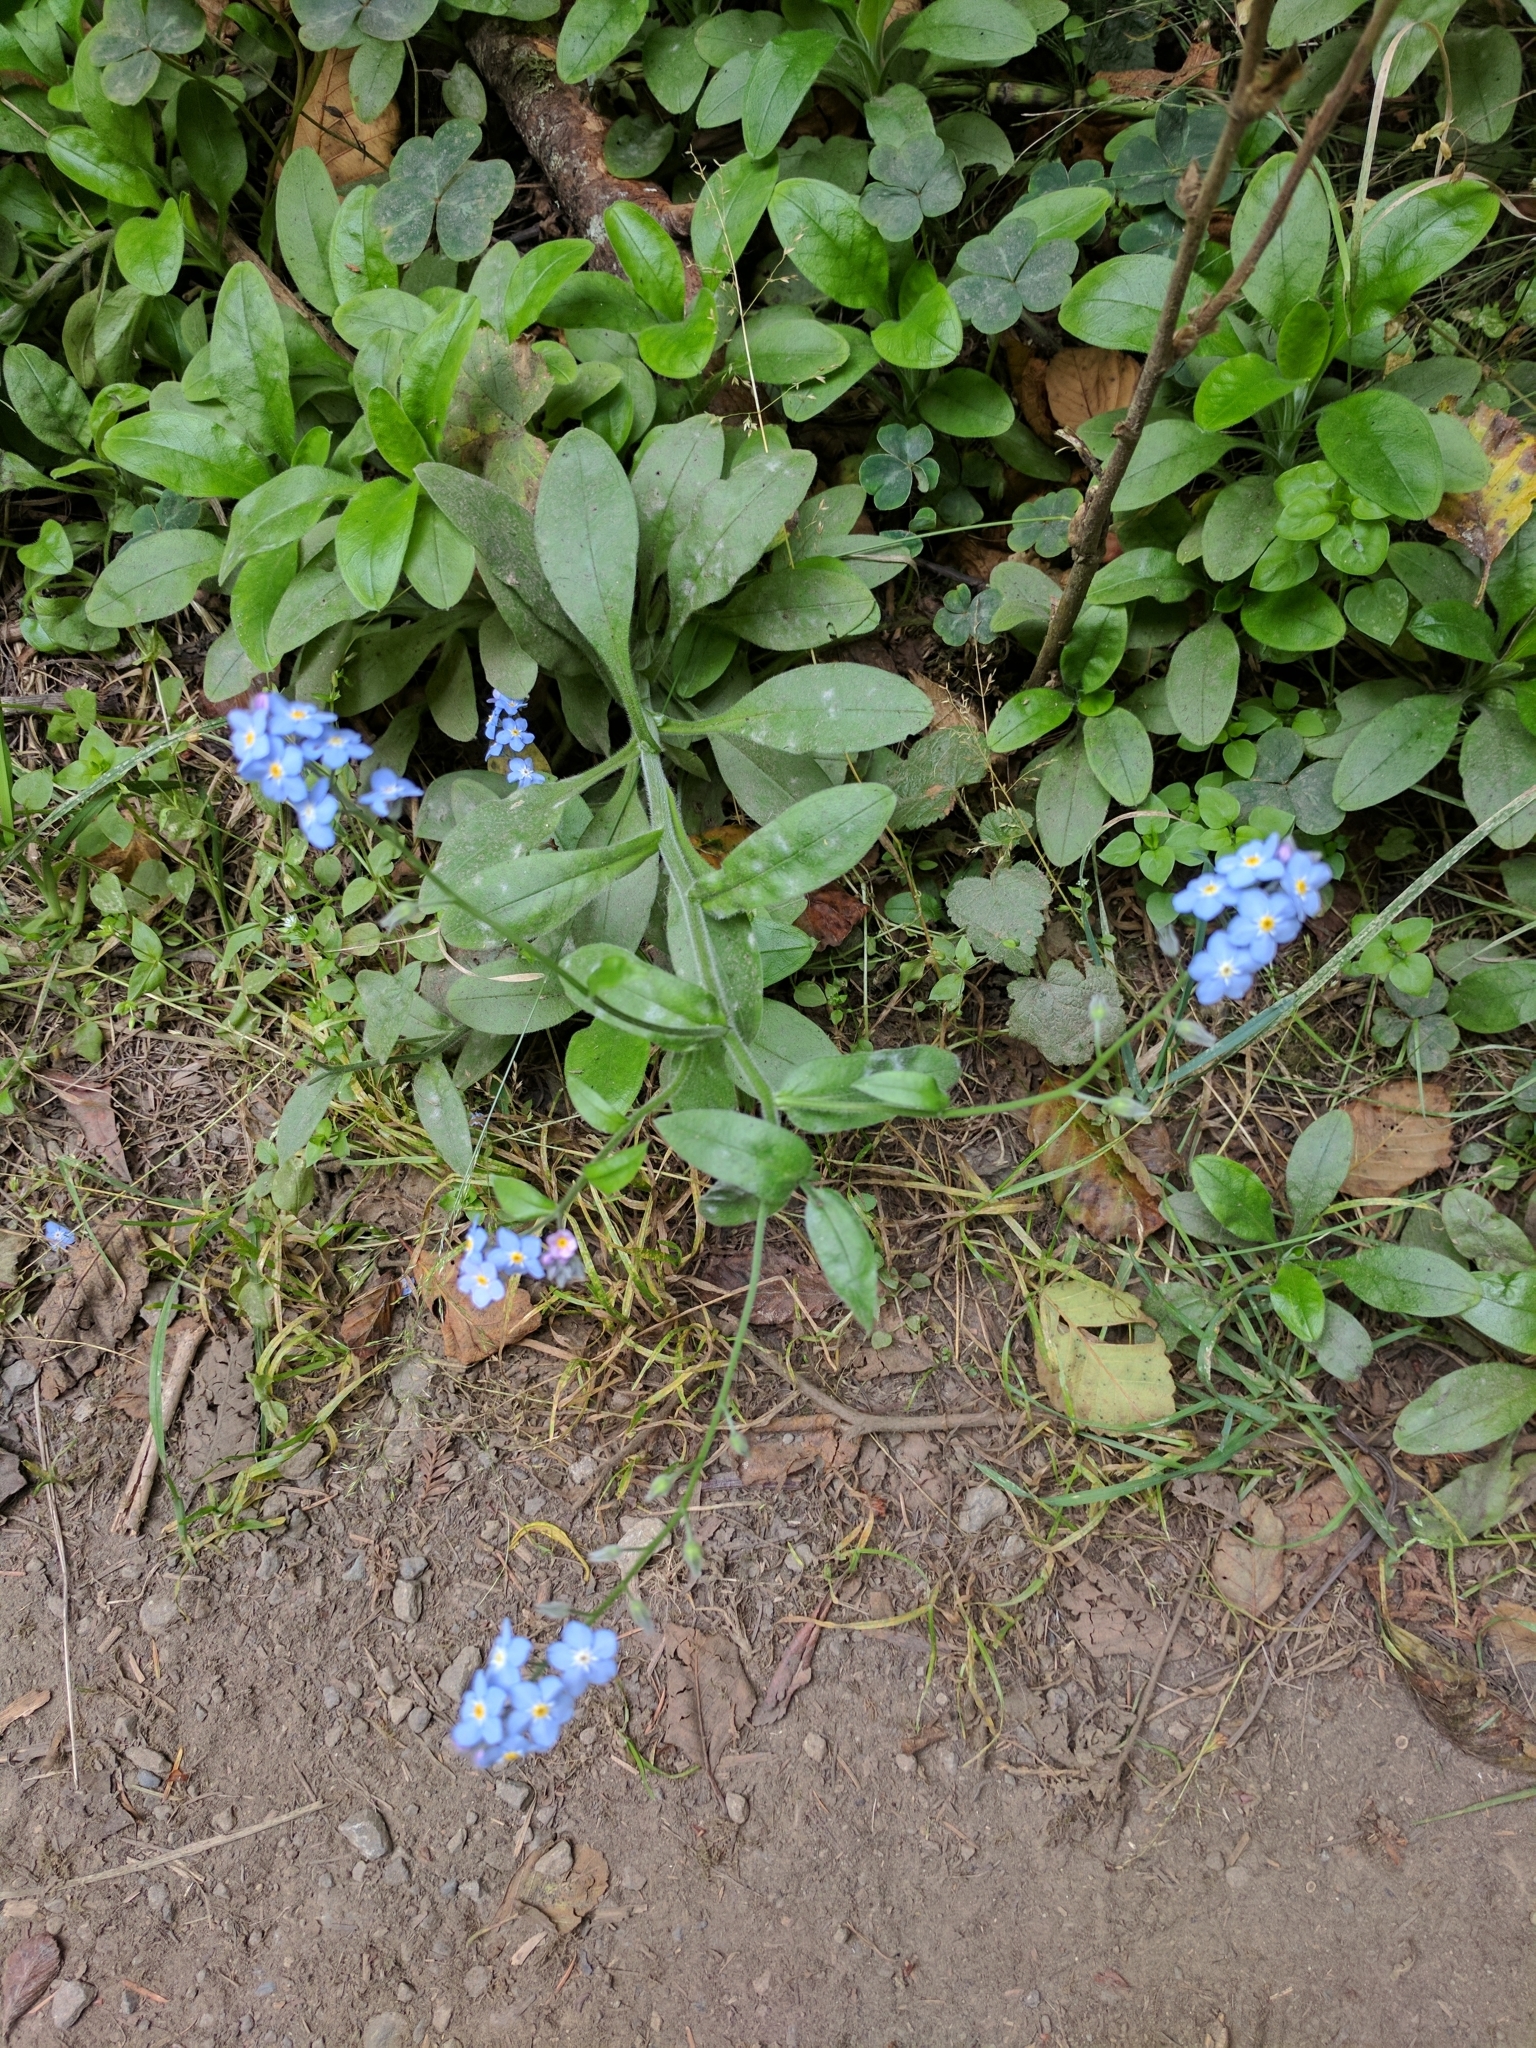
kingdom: Plantae
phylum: Tracheophyta
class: Magnoliopsida
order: Boraginales
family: Boraginaceae
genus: Myosotis
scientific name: Myosotis latifolia
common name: Broadleaf forget-me-not
